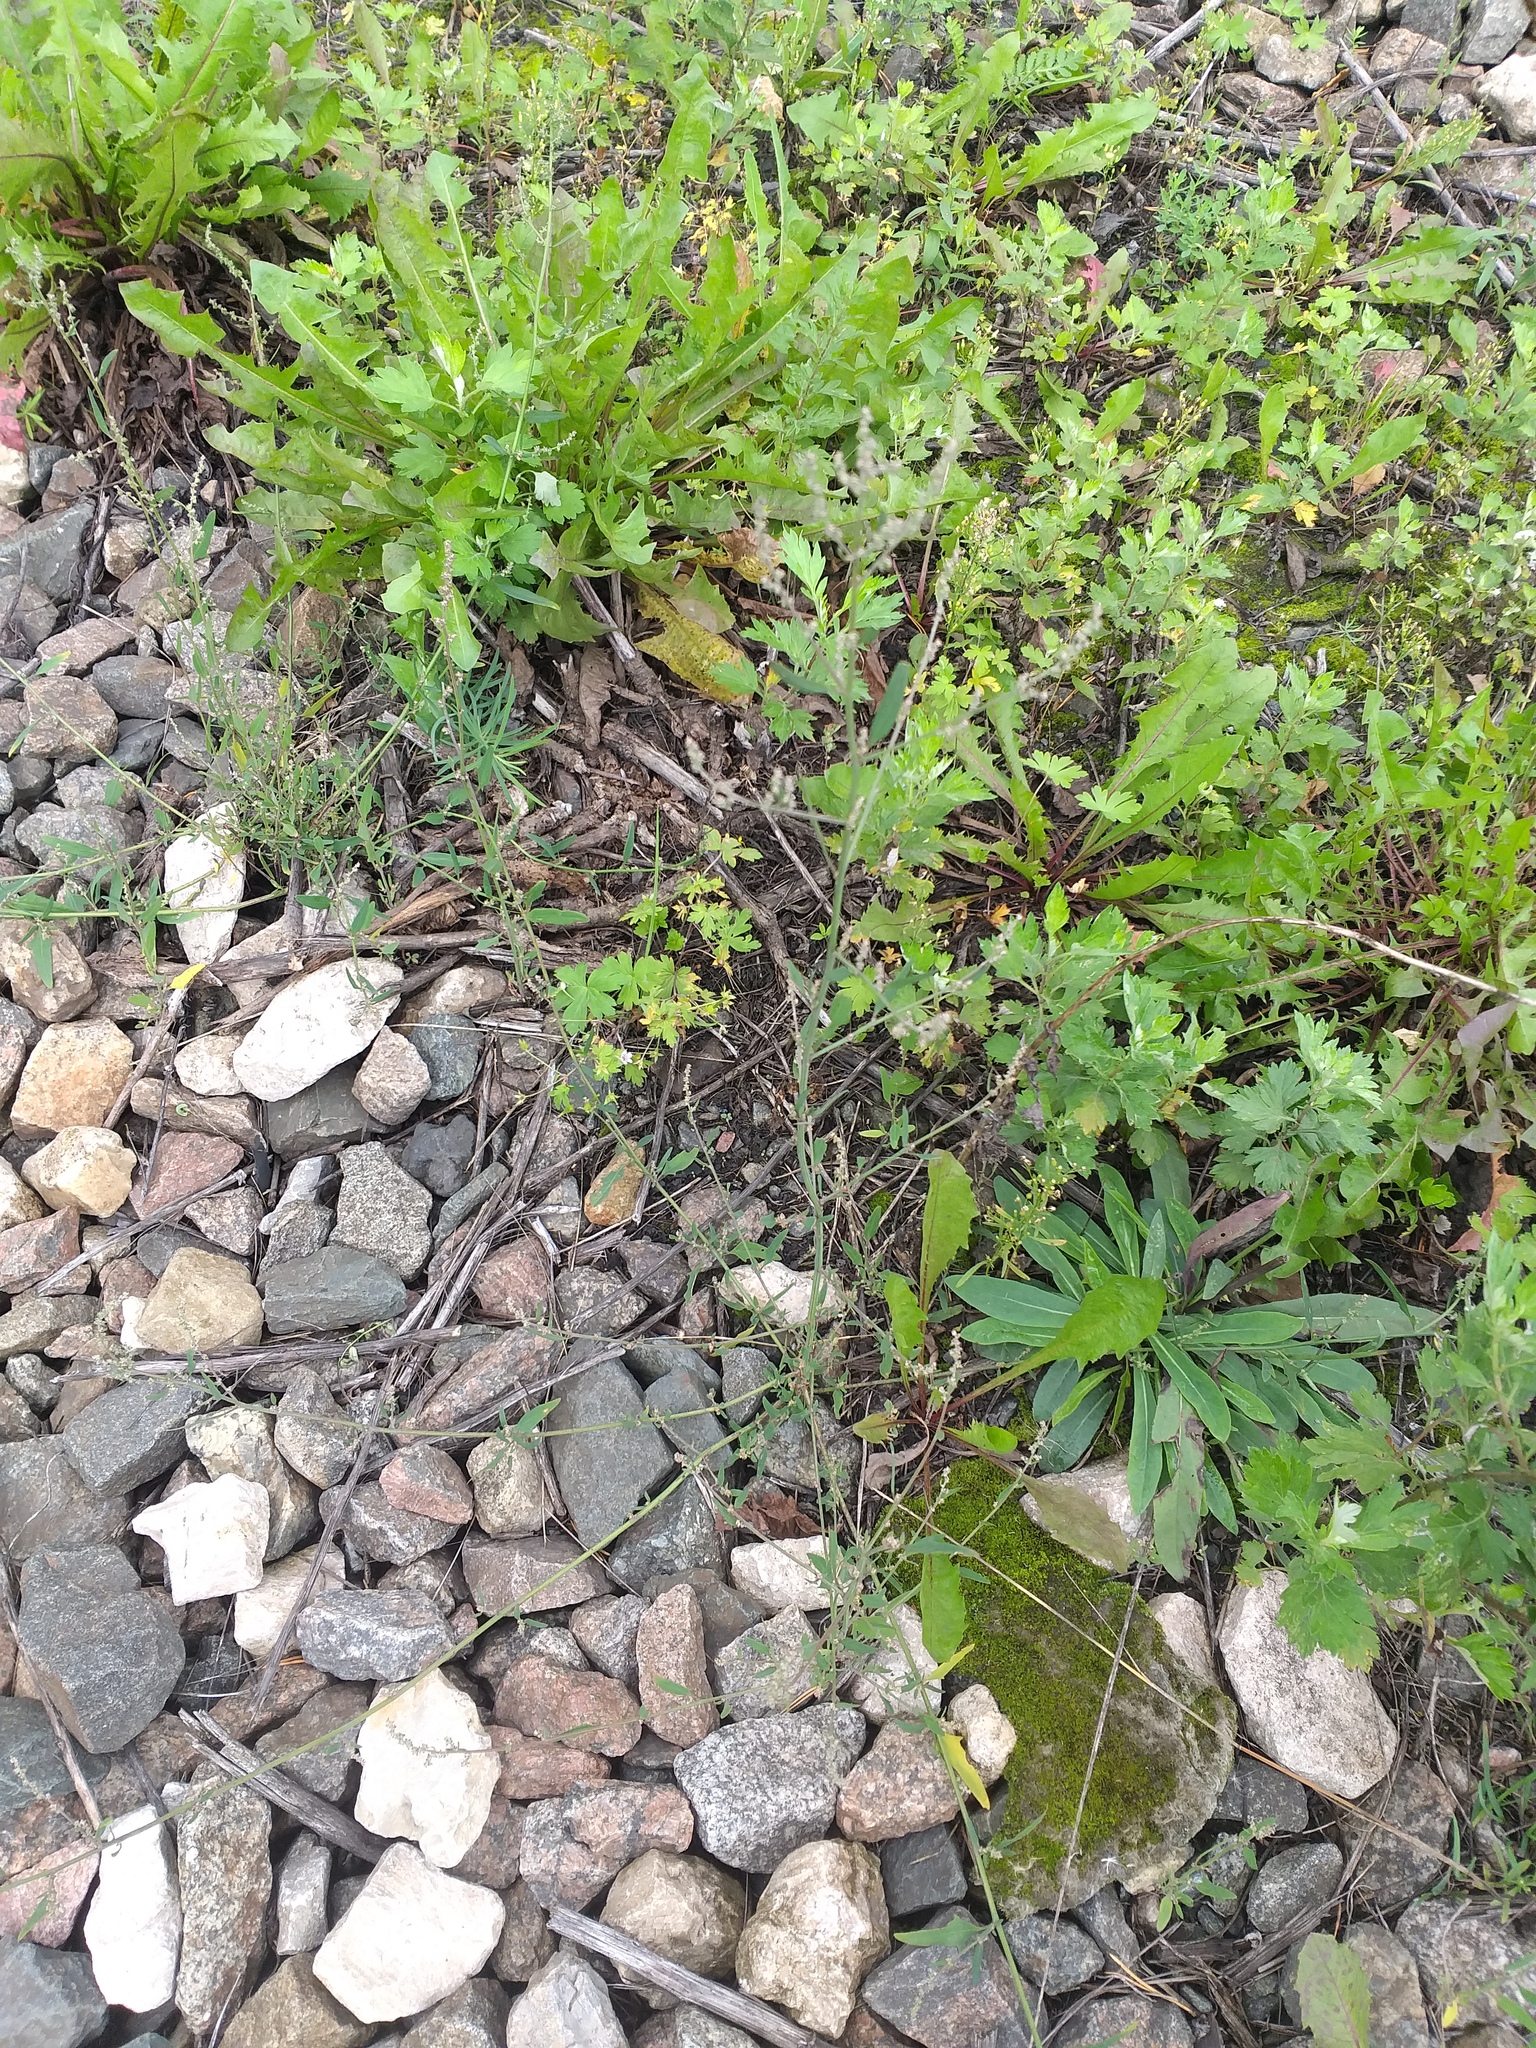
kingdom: Plantae
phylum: Tracheophyta
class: Magnoliopsida
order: Caryophyllales
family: Amaranthaceae
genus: Atriplex
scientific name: Atriplex patula
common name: Common orache
